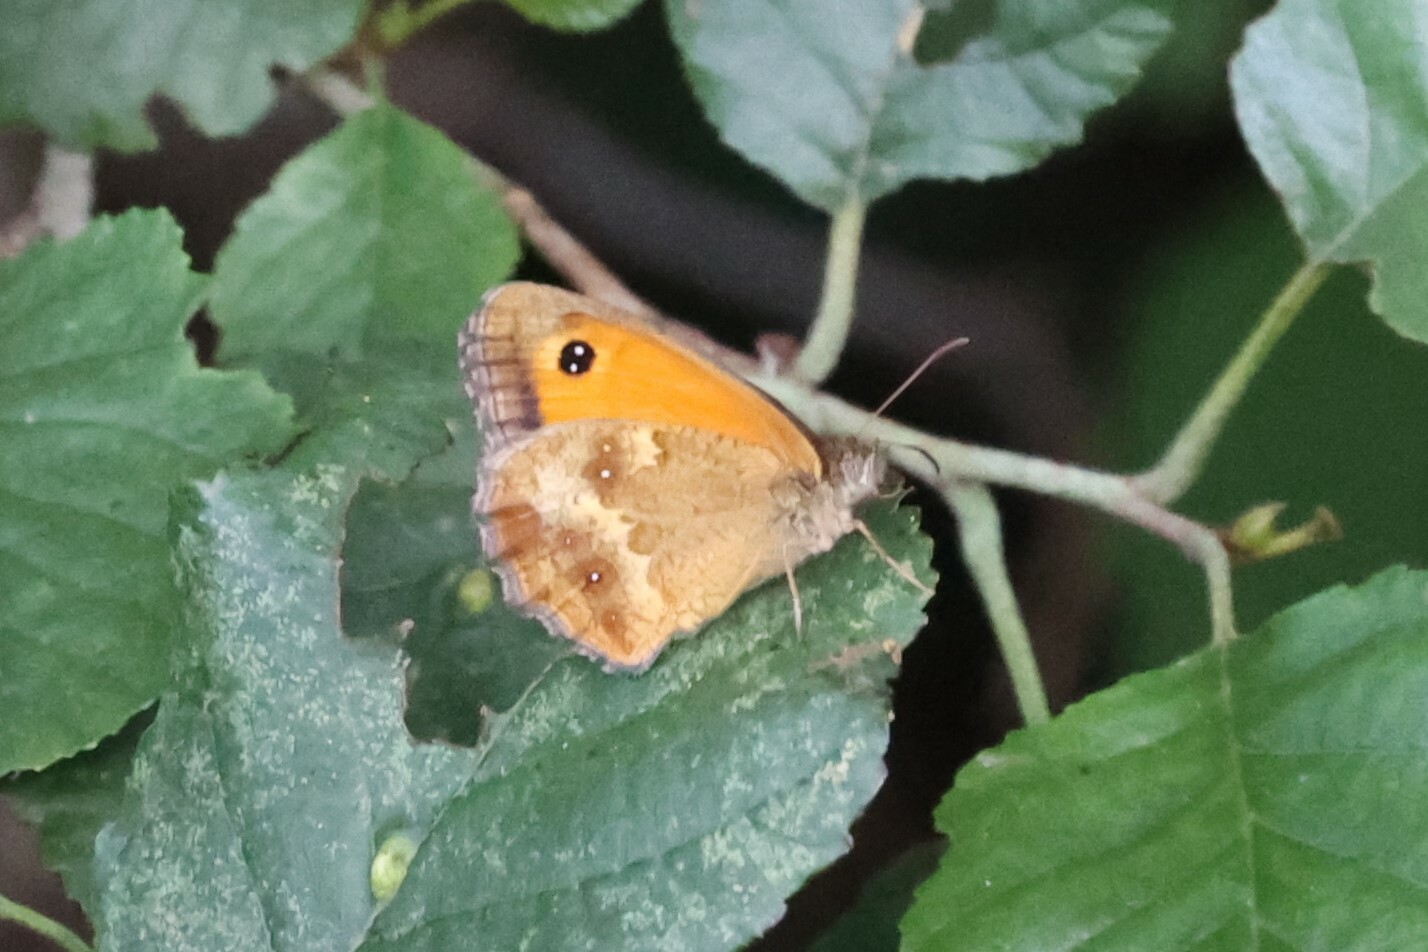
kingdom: Animalia
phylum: Arthropoda
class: Insecta
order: Lepidoptera
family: Nymphalidae
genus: Pyronia
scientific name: Pyronia tithonus
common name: Gatekeeper
